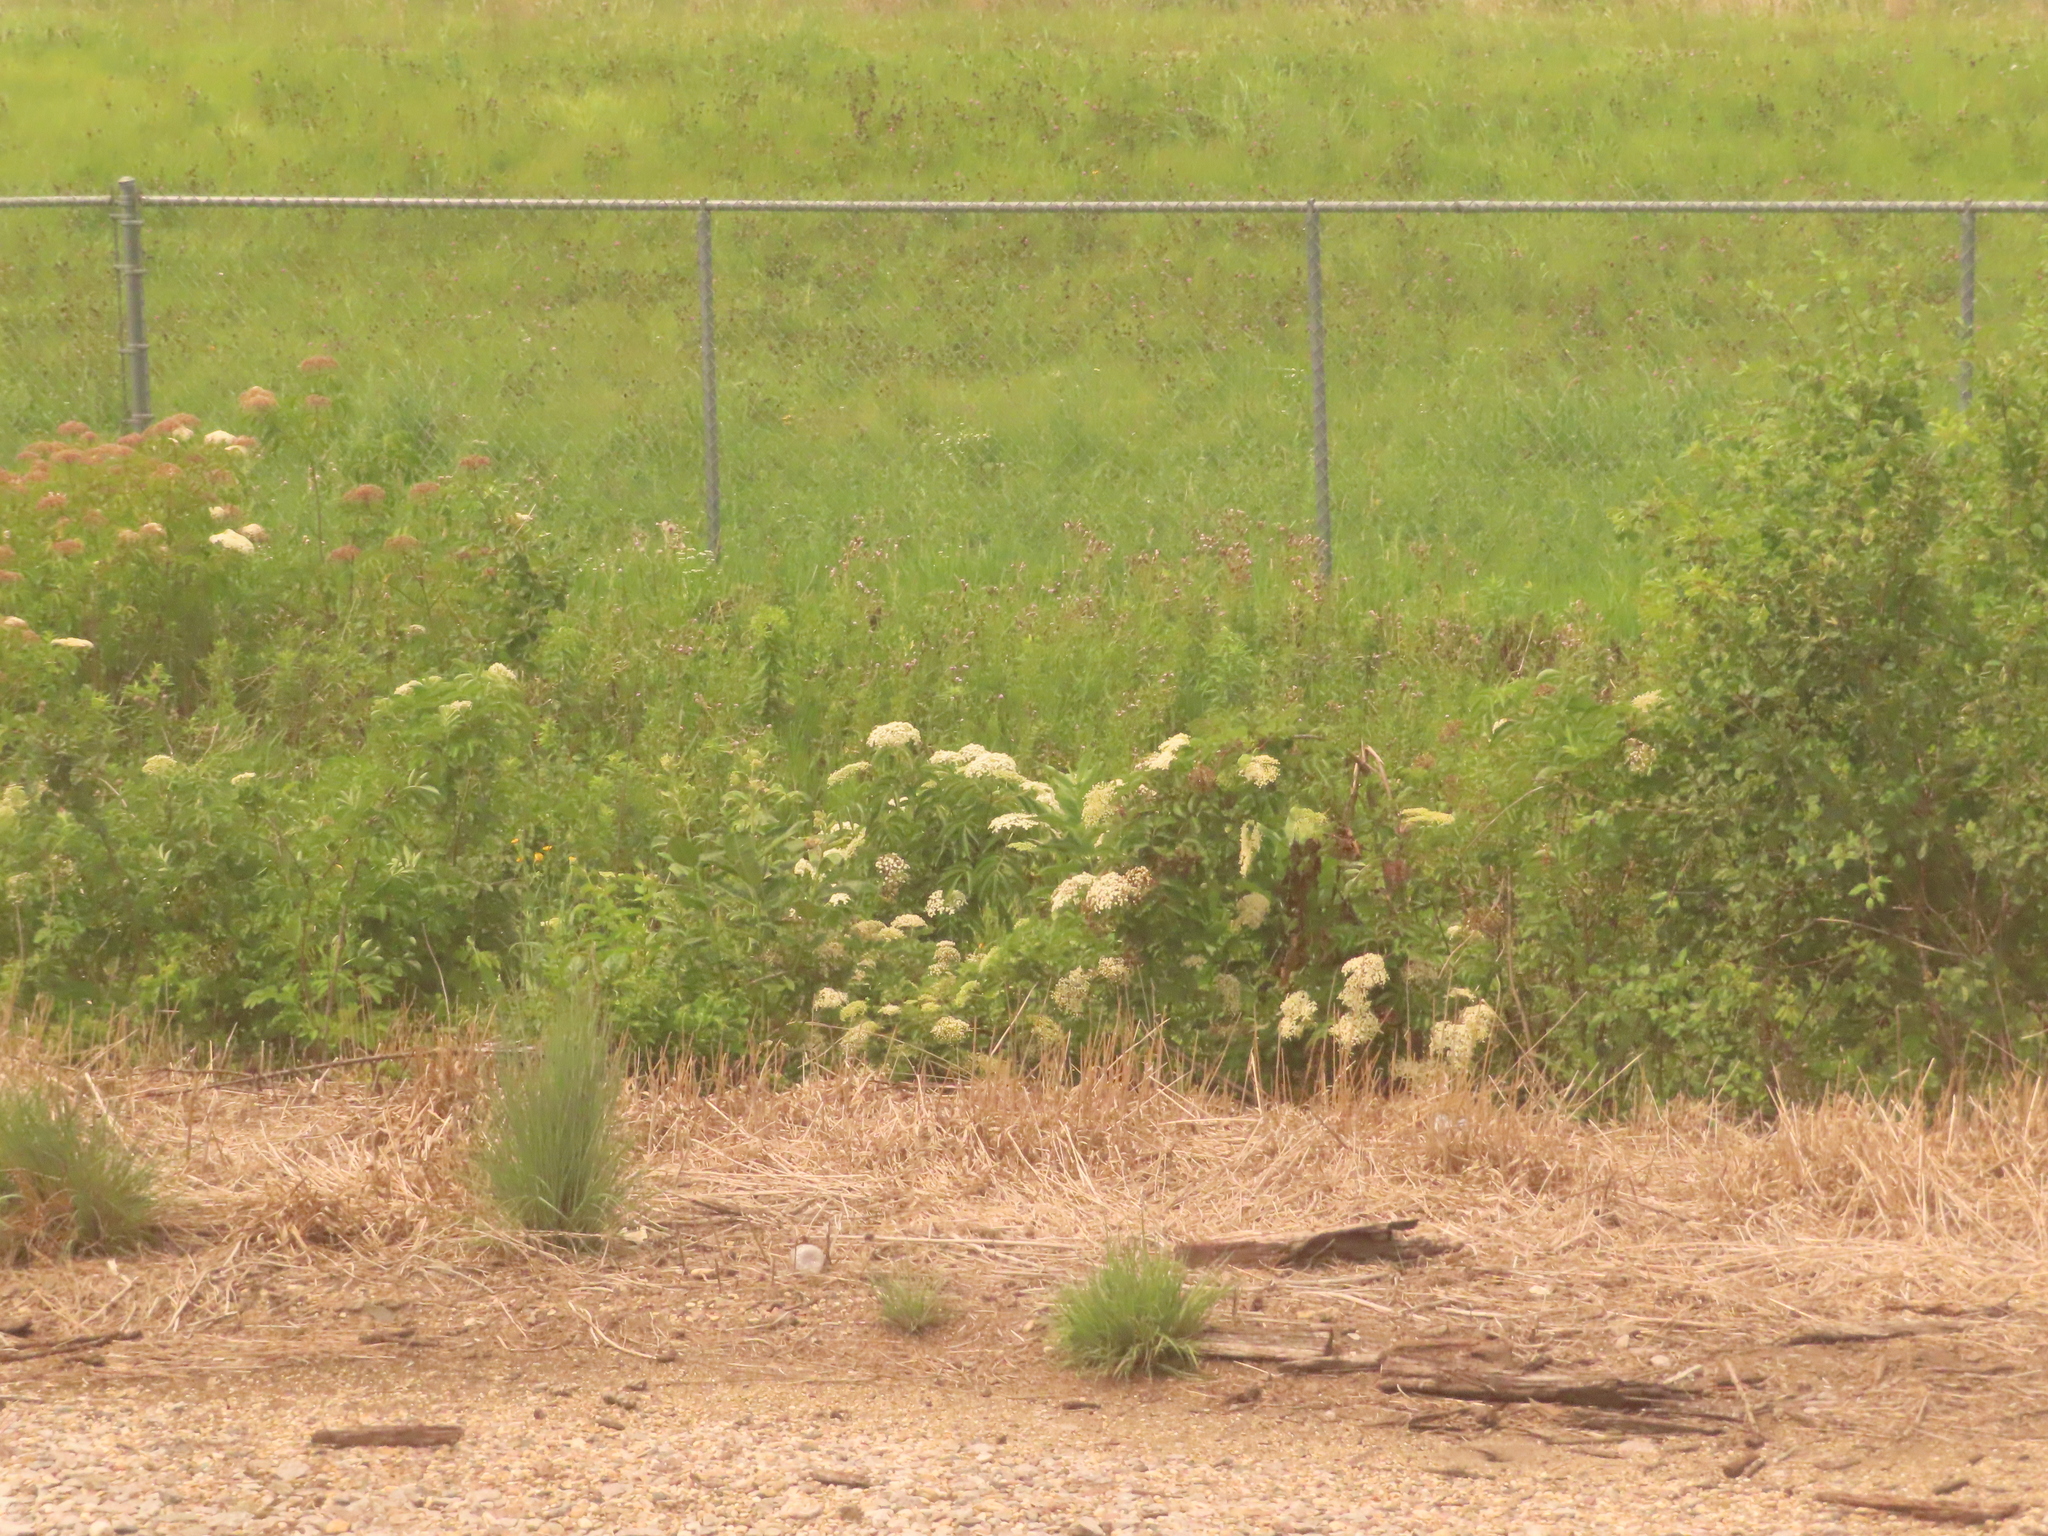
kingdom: Plantae
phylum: Tracheophyta
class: Magnoliopsida
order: Dipsacales
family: Viburnaceae
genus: Sambucus
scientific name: Sambucus canadensis
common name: American elder
